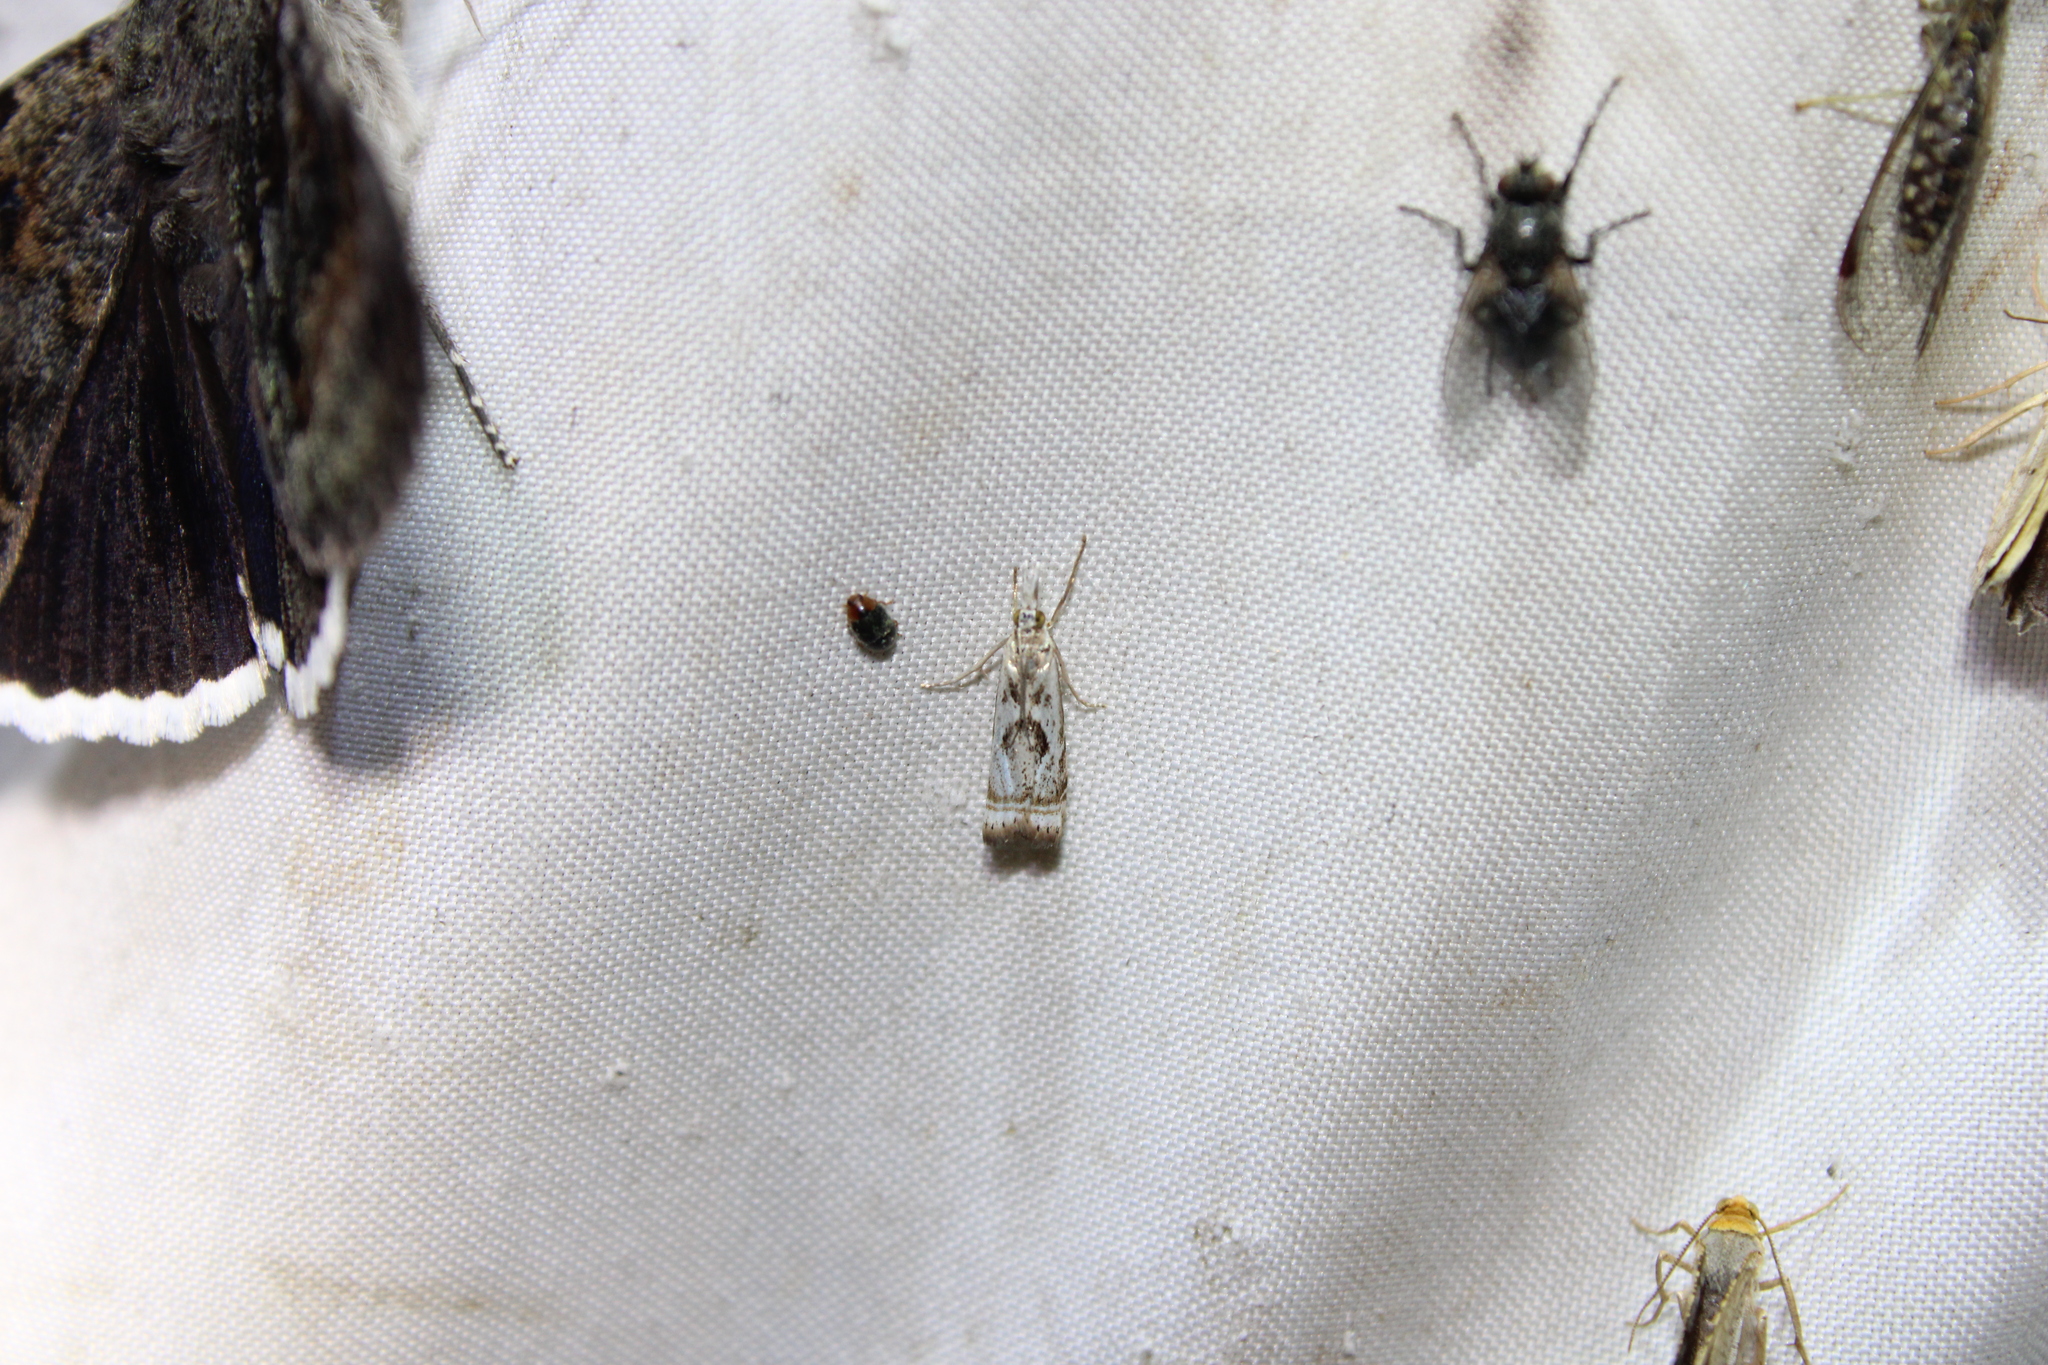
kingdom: Animalia
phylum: Arthropoda
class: Insecta
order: Lepidoptera
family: Crambidae
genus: Microcrambus
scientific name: Microcrambus elegans
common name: Elegant grass-veneer
